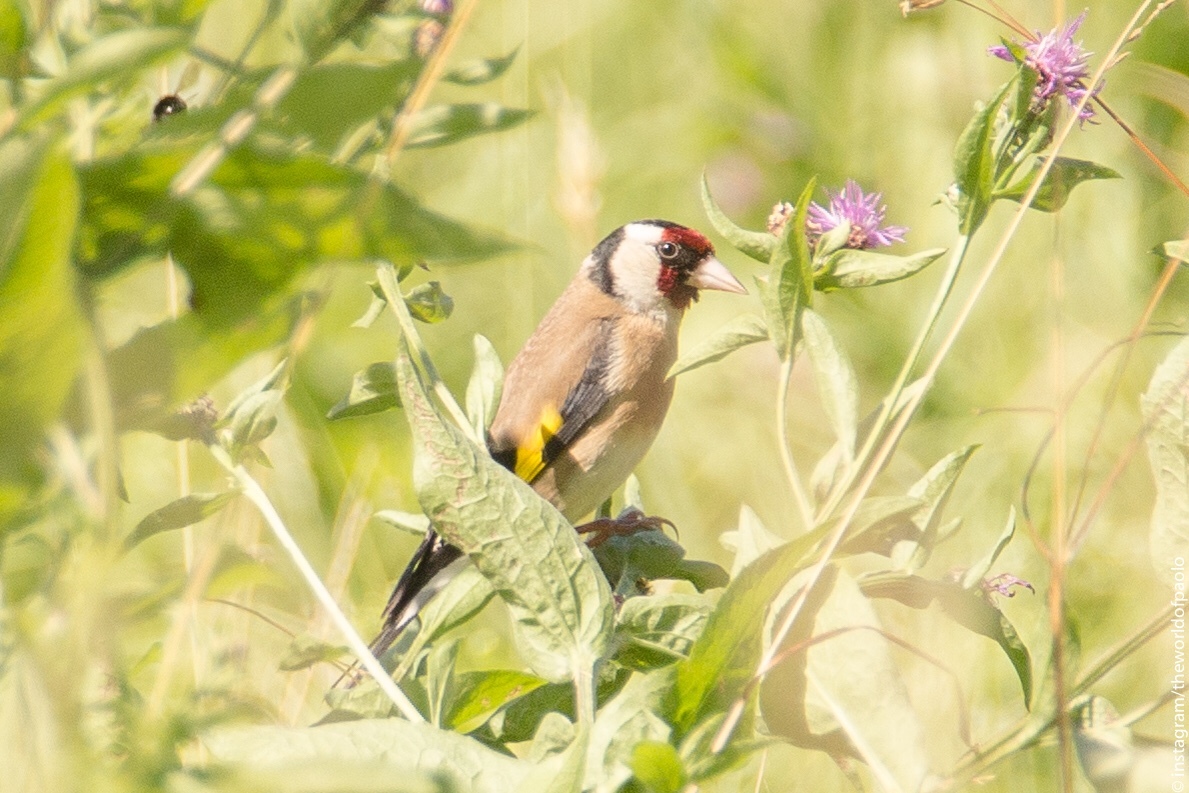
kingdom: Animalia
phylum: Chordata
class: Aves
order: Passeriformes
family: Fringillidae
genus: Carduelis
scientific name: Carduelis carduelis
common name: European goldfinch
